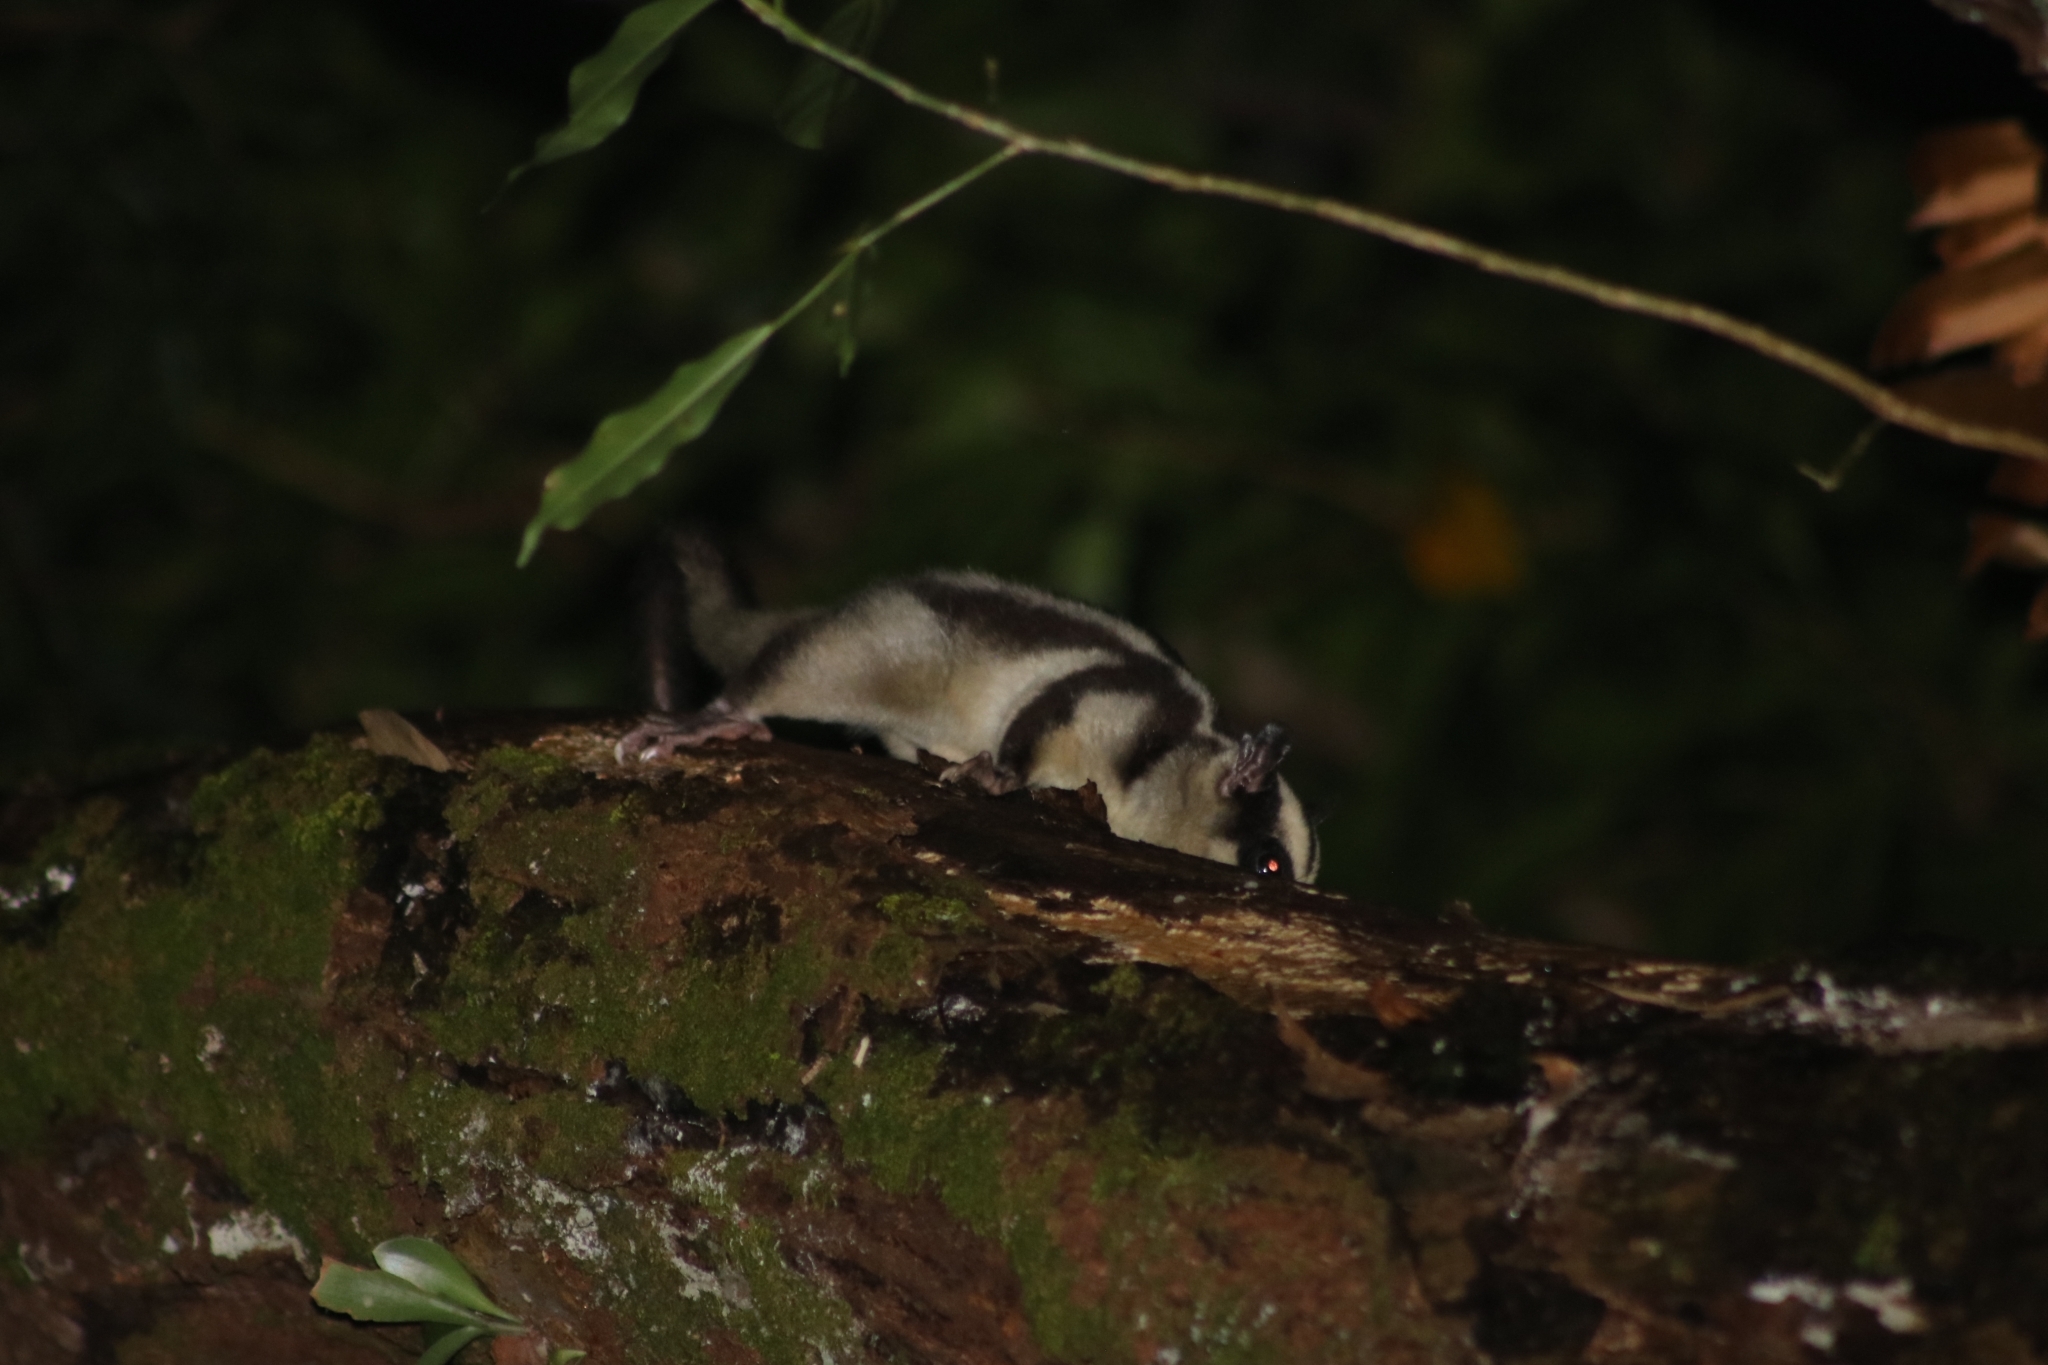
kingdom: Animalia
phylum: Chordata
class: Mammalia
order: Diprotodontia
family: Petauridae
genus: Dactylopsila
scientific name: Dactylopsila trivirgata
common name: Striped possum
